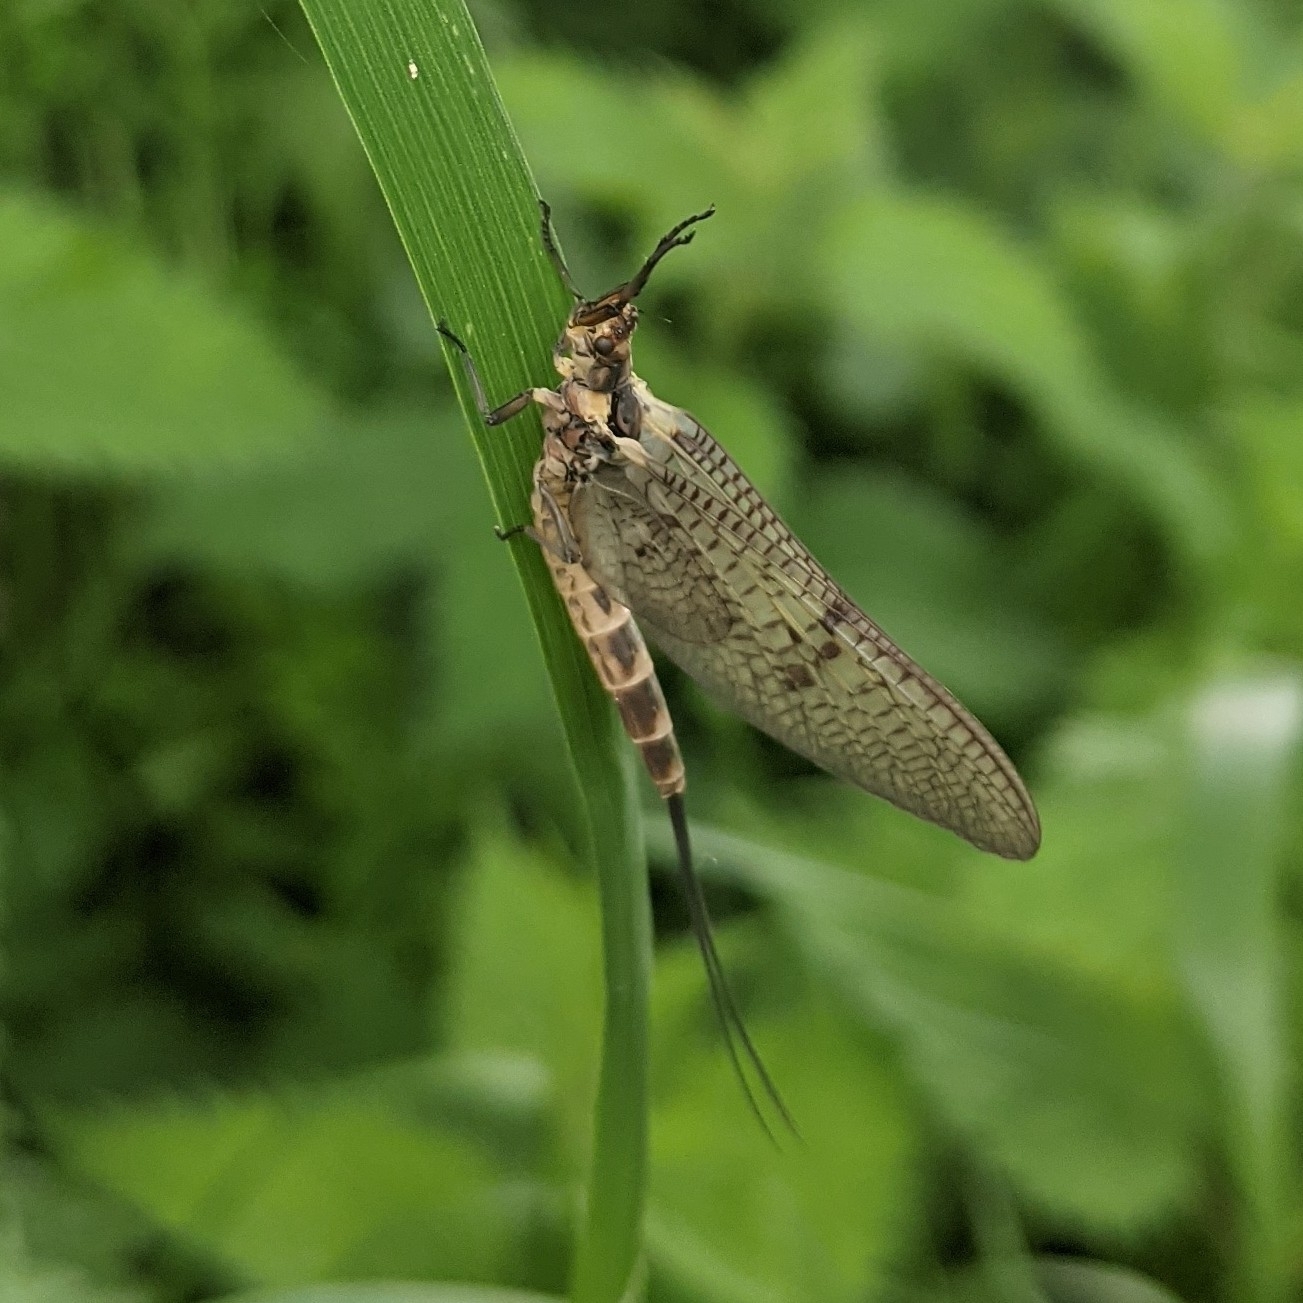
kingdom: Animalia
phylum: Arthropoda
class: Insecta
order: Ephemeroptera
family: Ephemeridae
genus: Ephemera
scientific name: Ephemera danica
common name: Green dun
